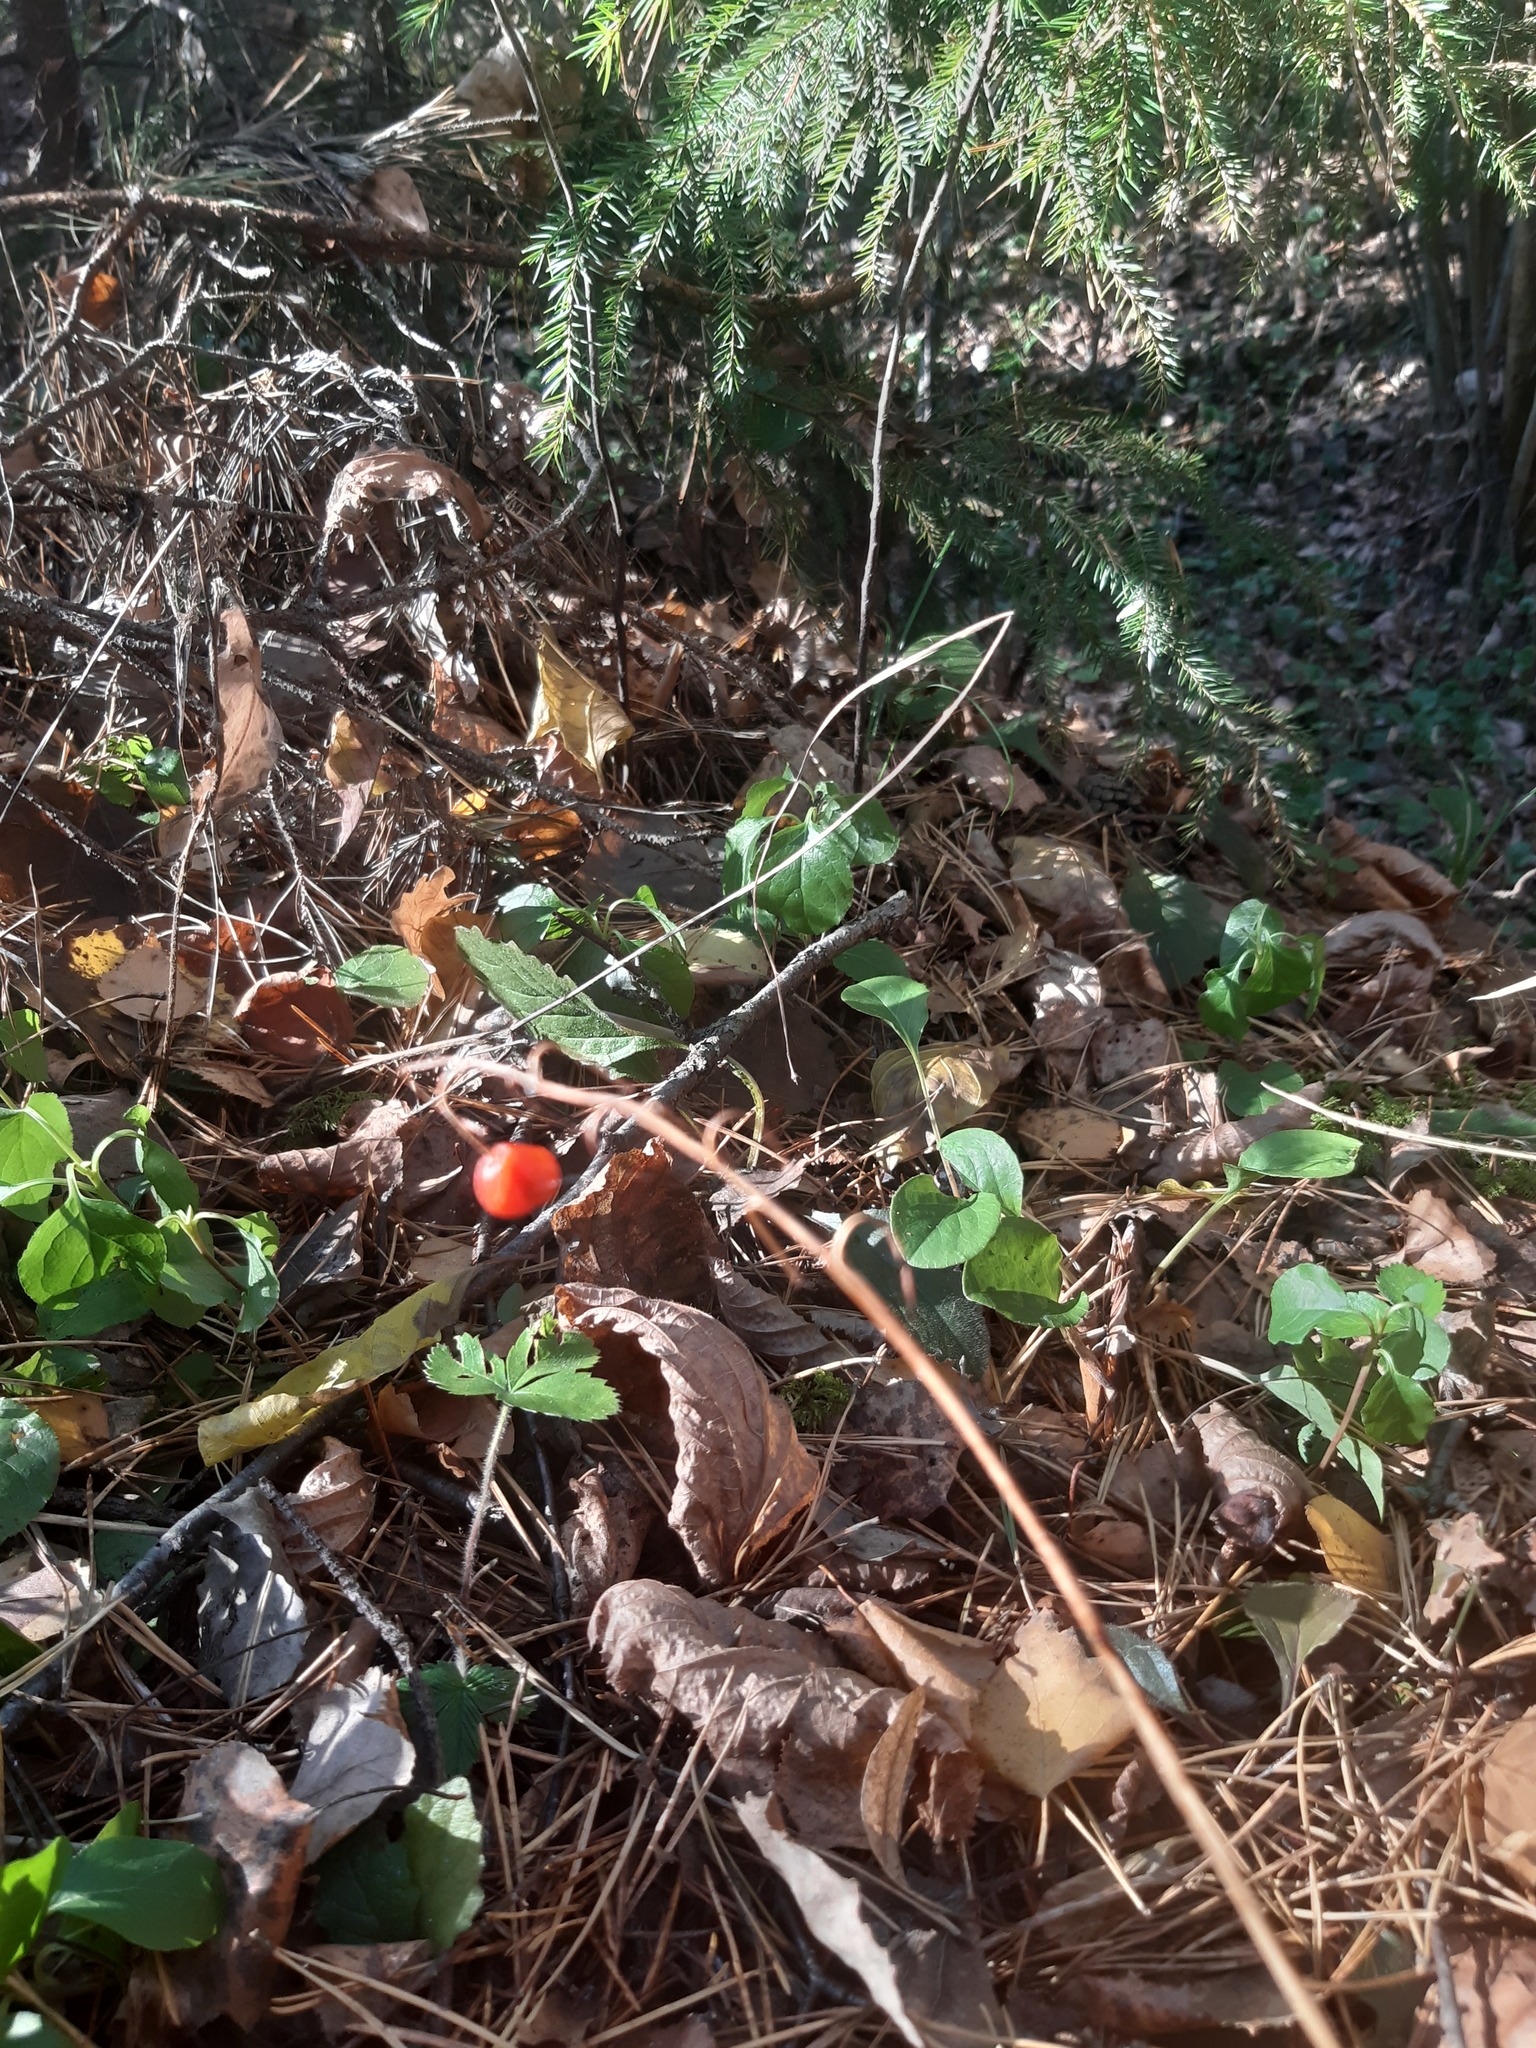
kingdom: Plantae
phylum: Tracheophyta
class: Liliopsida
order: Asparagales
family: Asparagaceae
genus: Convallaria
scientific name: Convallaria majalis
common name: Lily-of-the-valley
